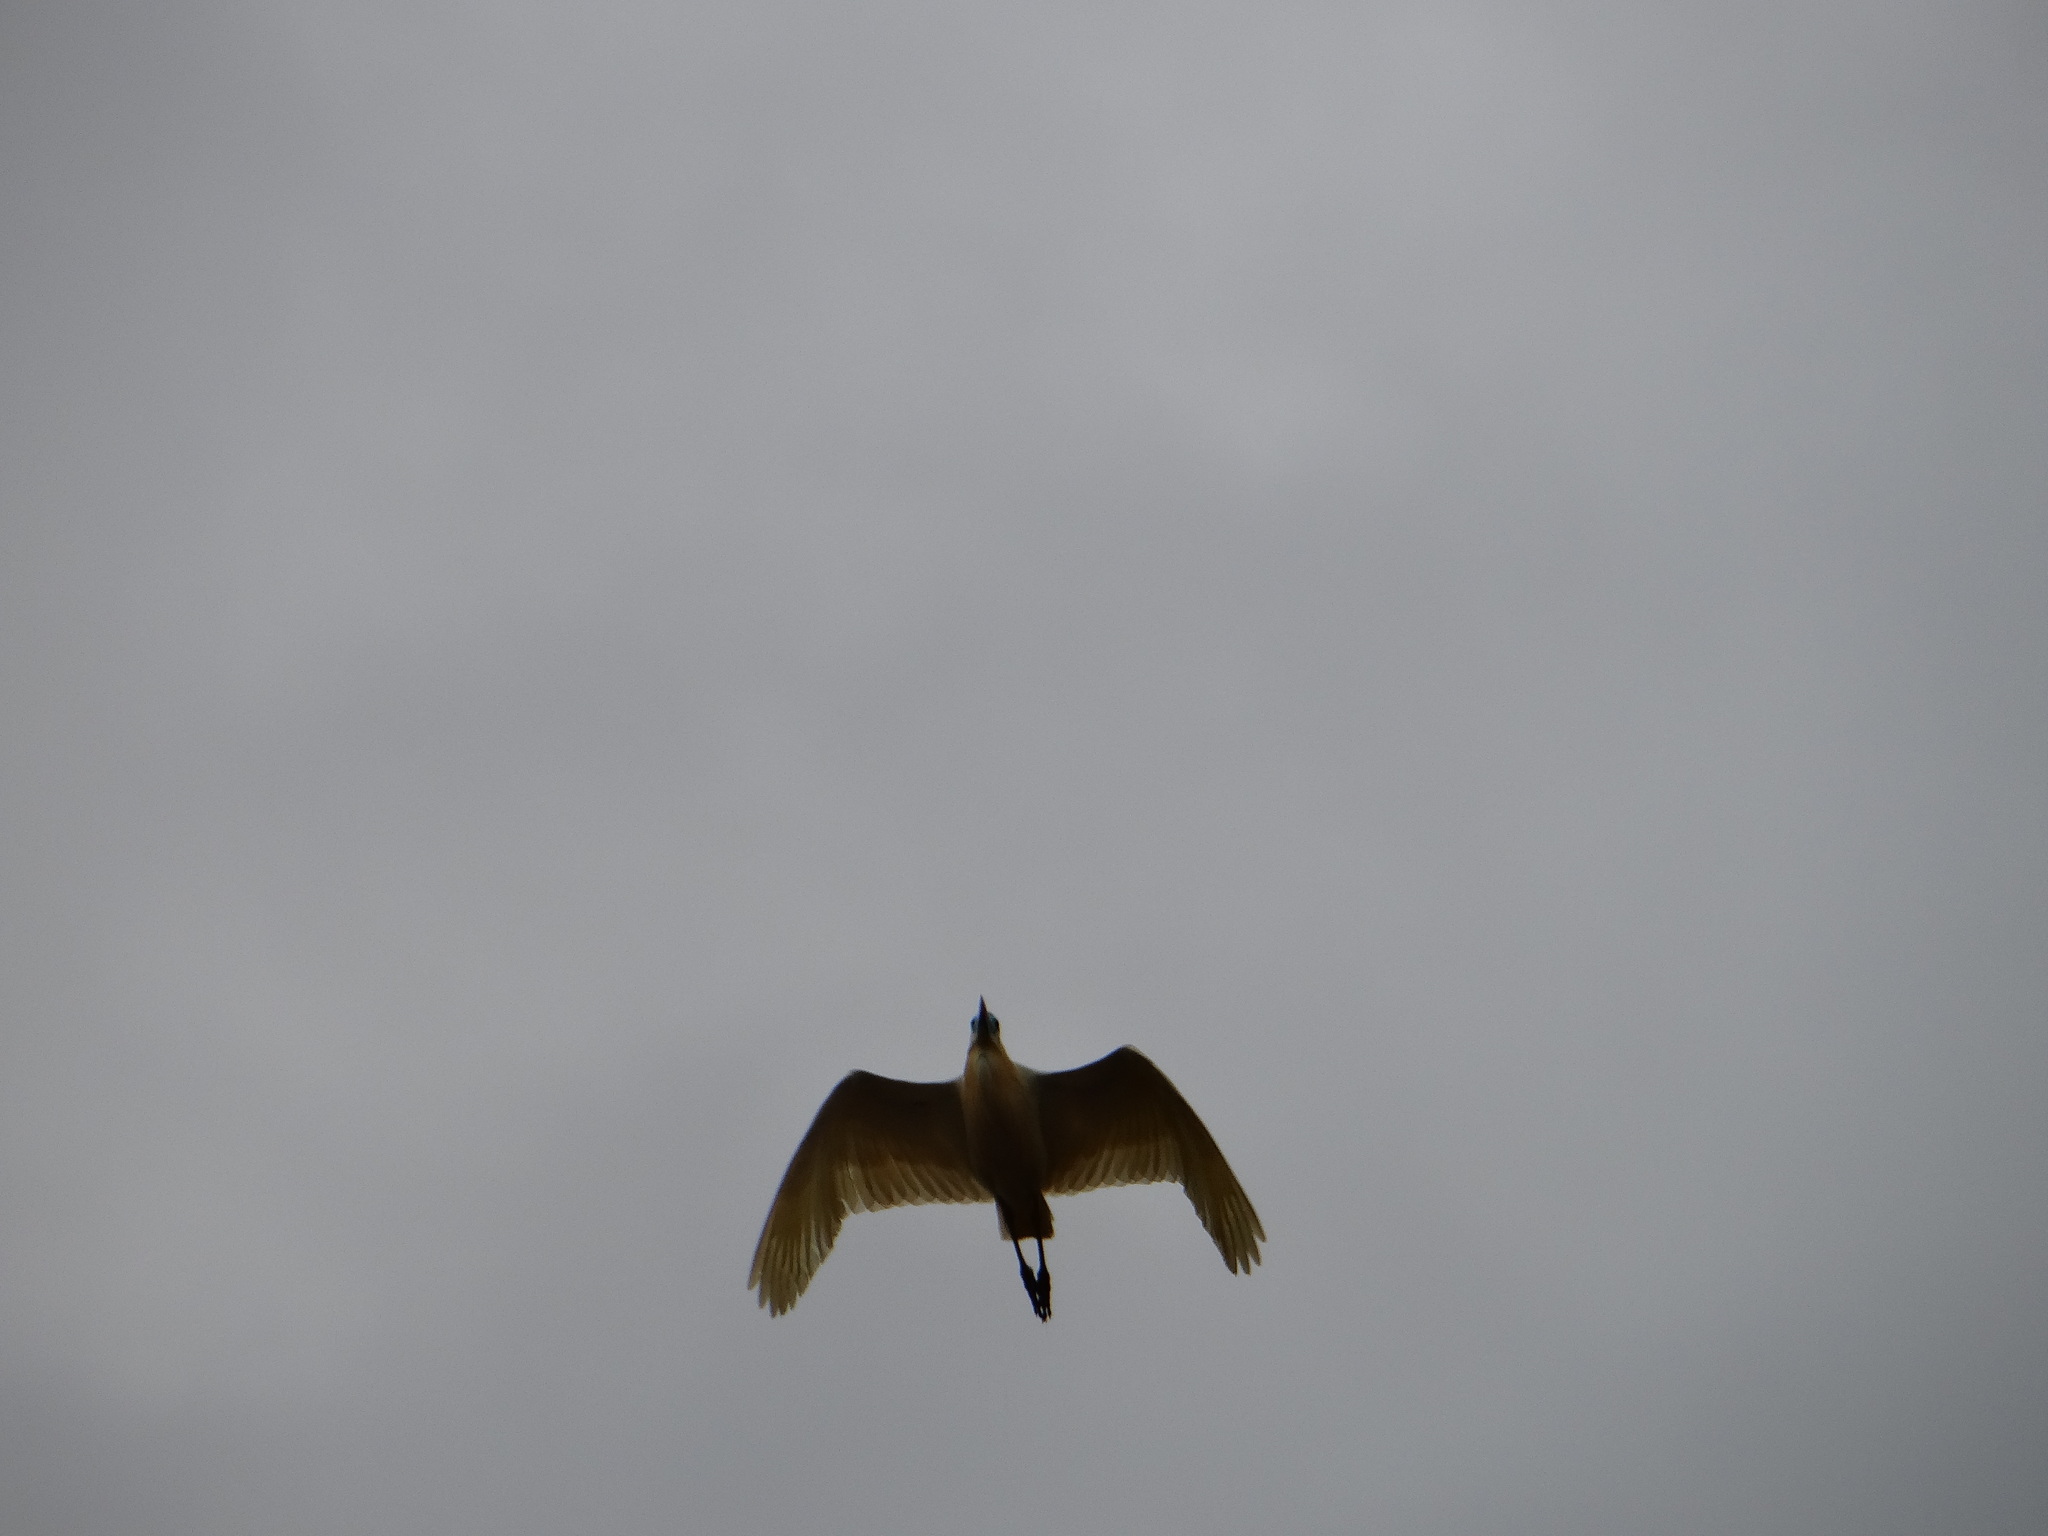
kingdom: Animalia
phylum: Chordata
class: Aves
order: Pelecaniformes
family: Ardeidae
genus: Pilherodius
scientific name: Pilherodius pileatus
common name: Capped heron
